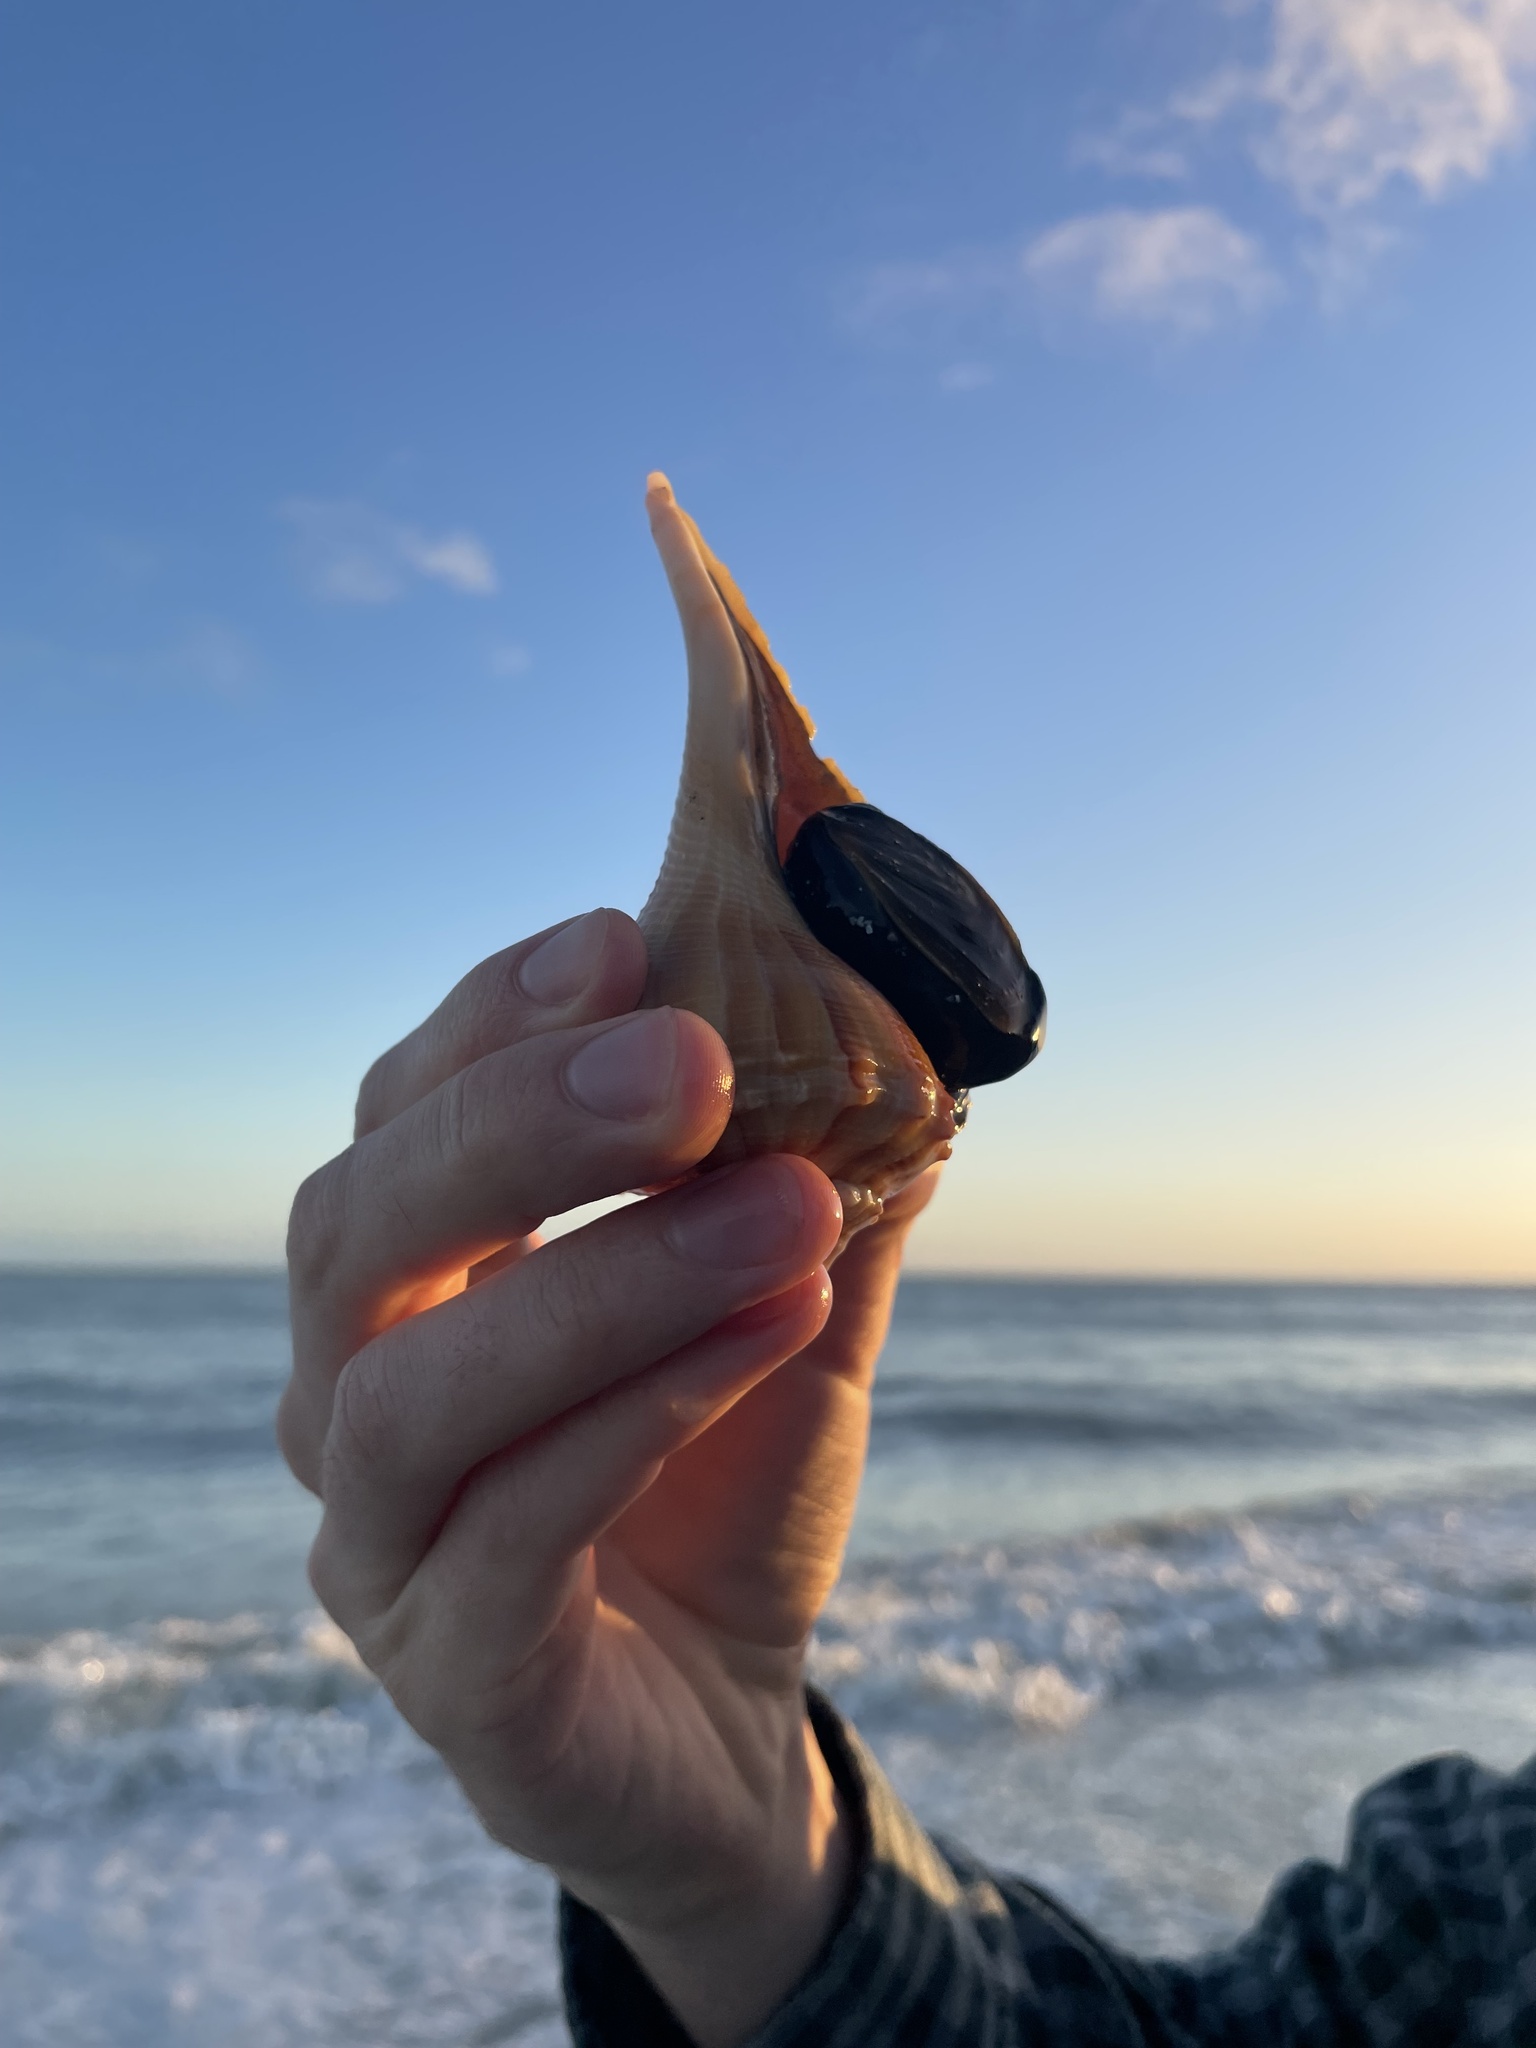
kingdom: Animalia
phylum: Mollusca
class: Gastropoda
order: Neogastropoda
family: Busyconidae
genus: Sinistrofulgur
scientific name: Sinistrofulgur sinistrum
